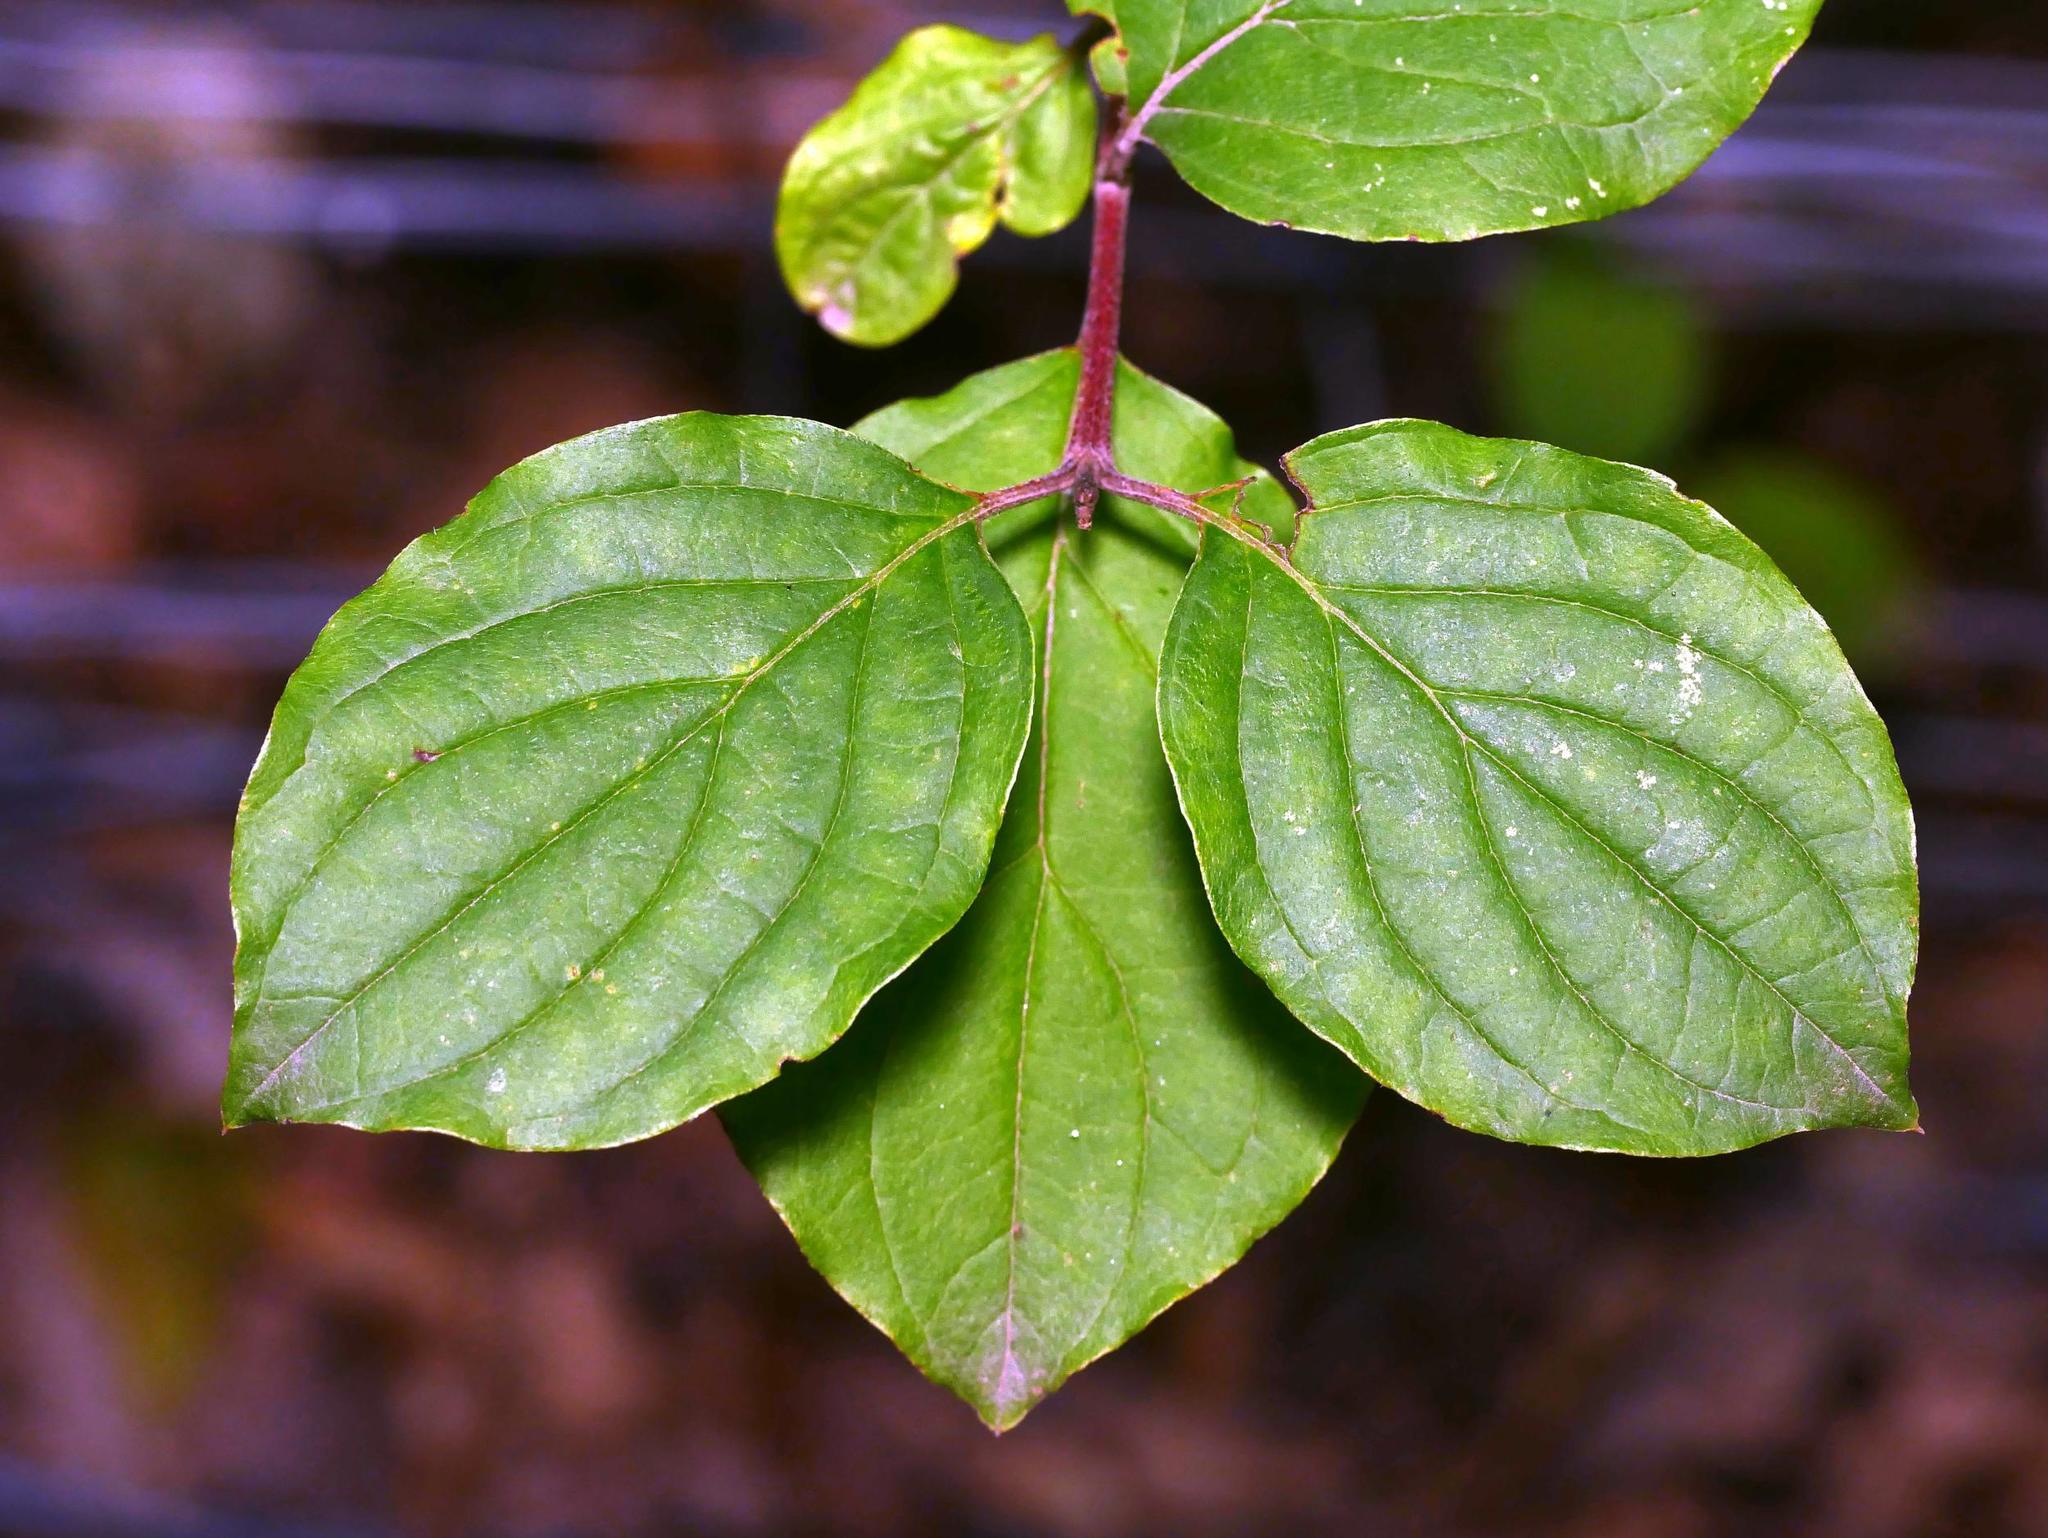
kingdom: Plantae
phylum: Tracheophyta
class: Magnoliopsida
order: Cornales
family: Cornaceae
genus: Cornus
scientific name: Cornus sanguinea
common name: Dogwood
